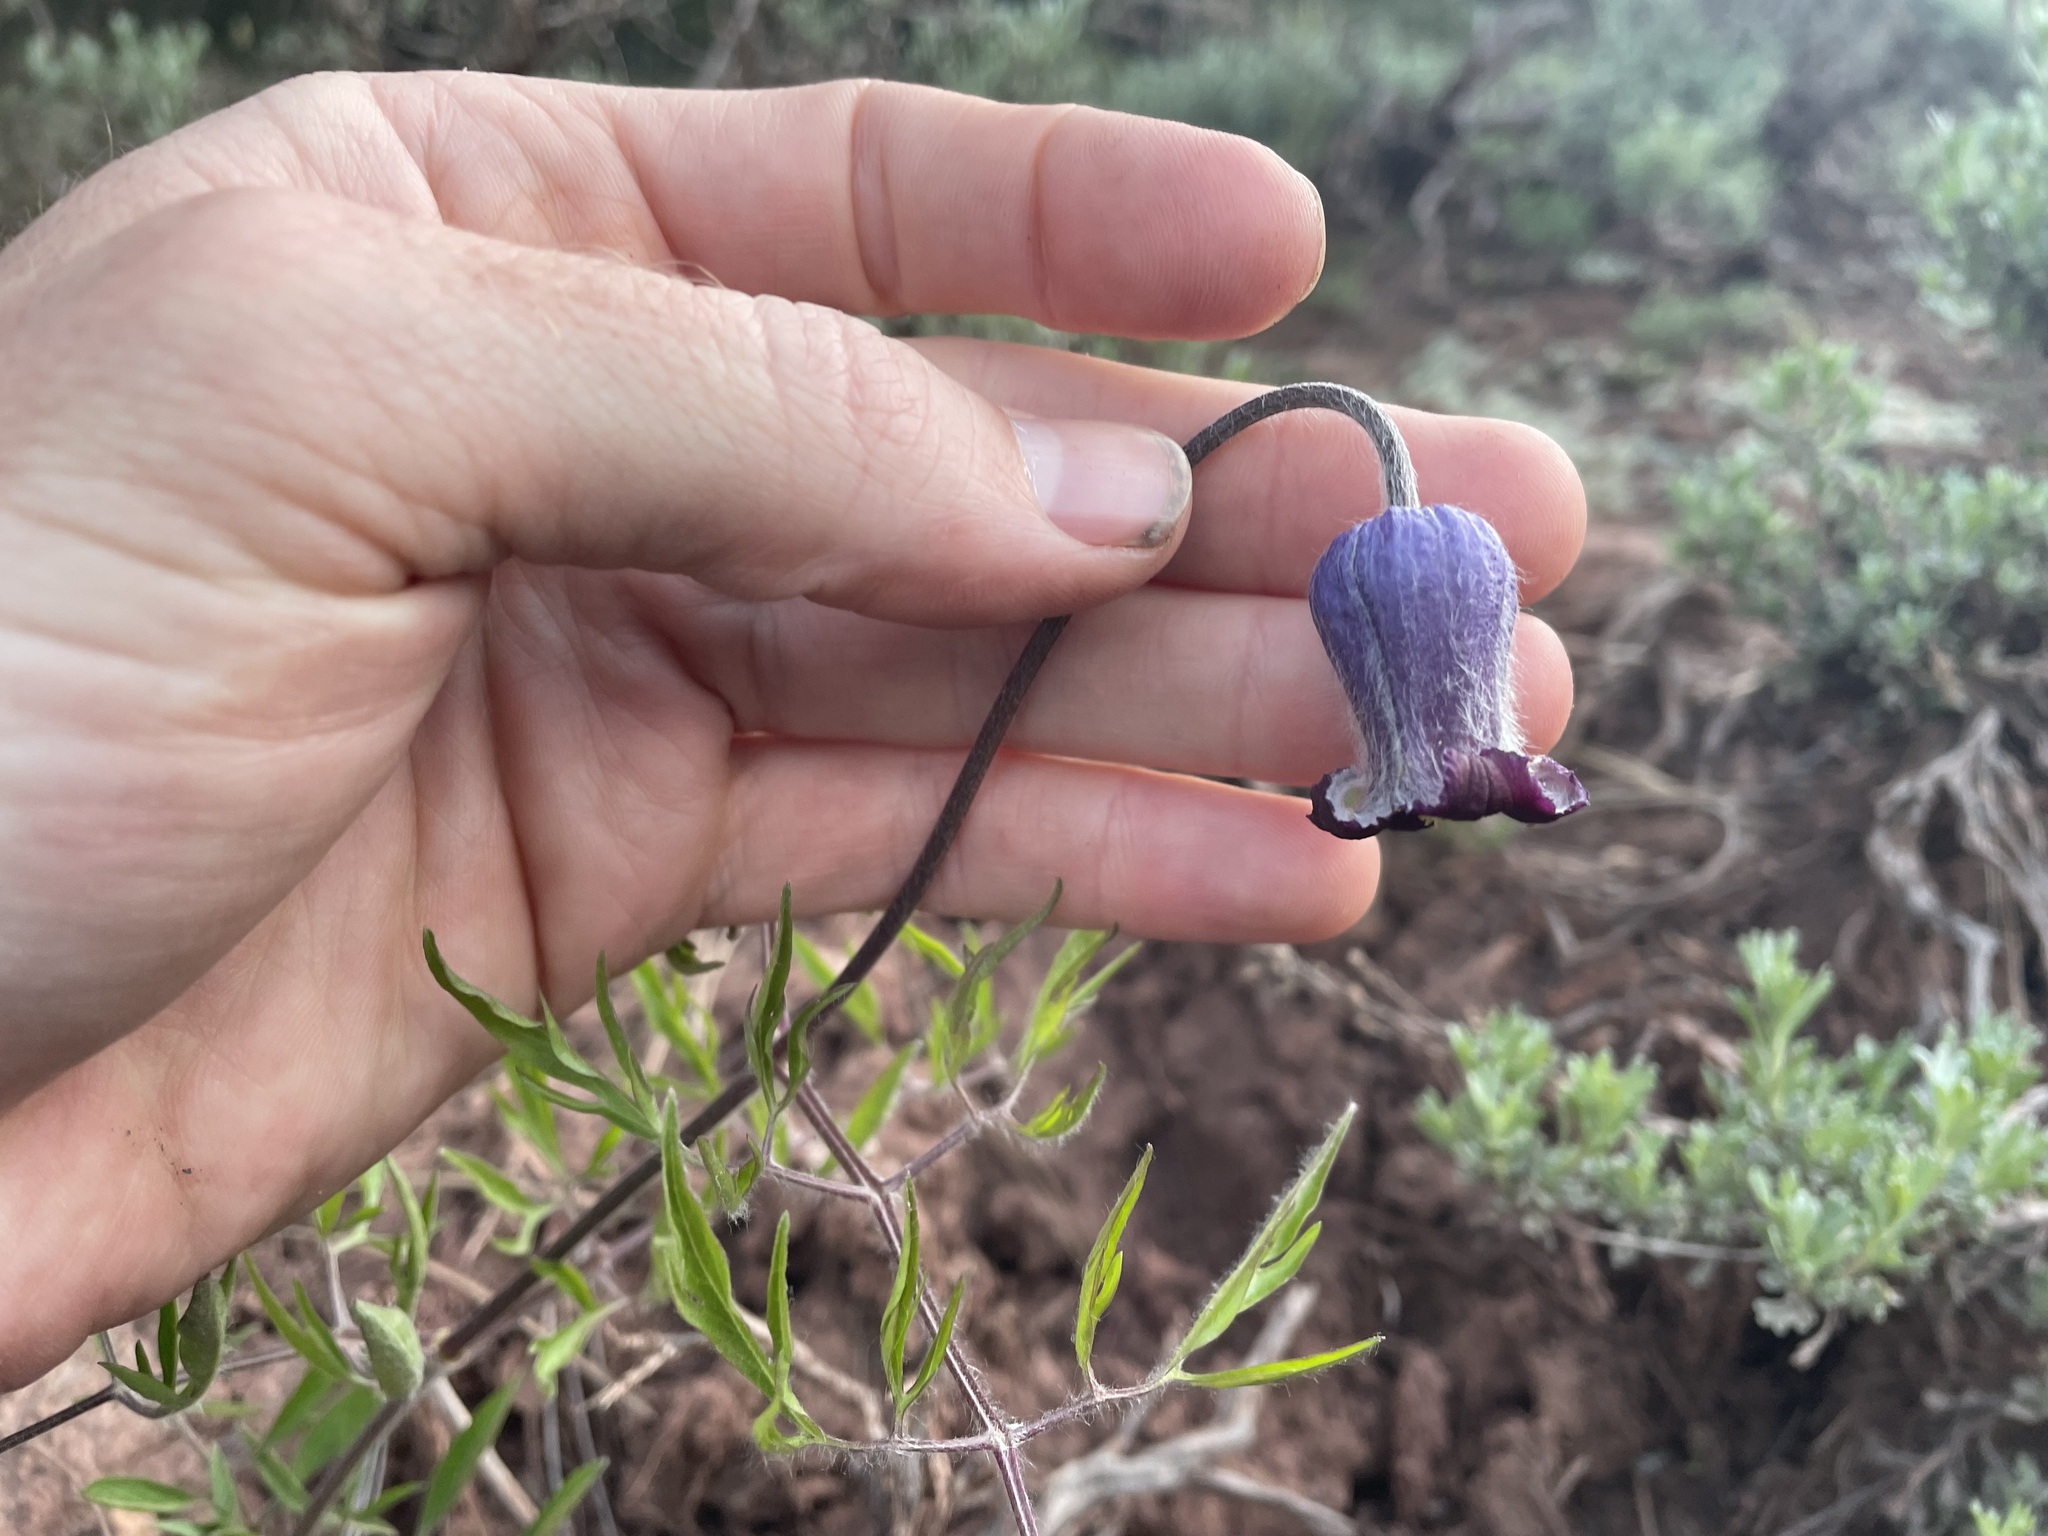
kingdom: Plantae
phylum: Tracheophyta
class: Magnoliopsida
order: Ranunculales
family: Ranunculaceae
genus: Clematis
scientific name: Clematis hirsutissima
